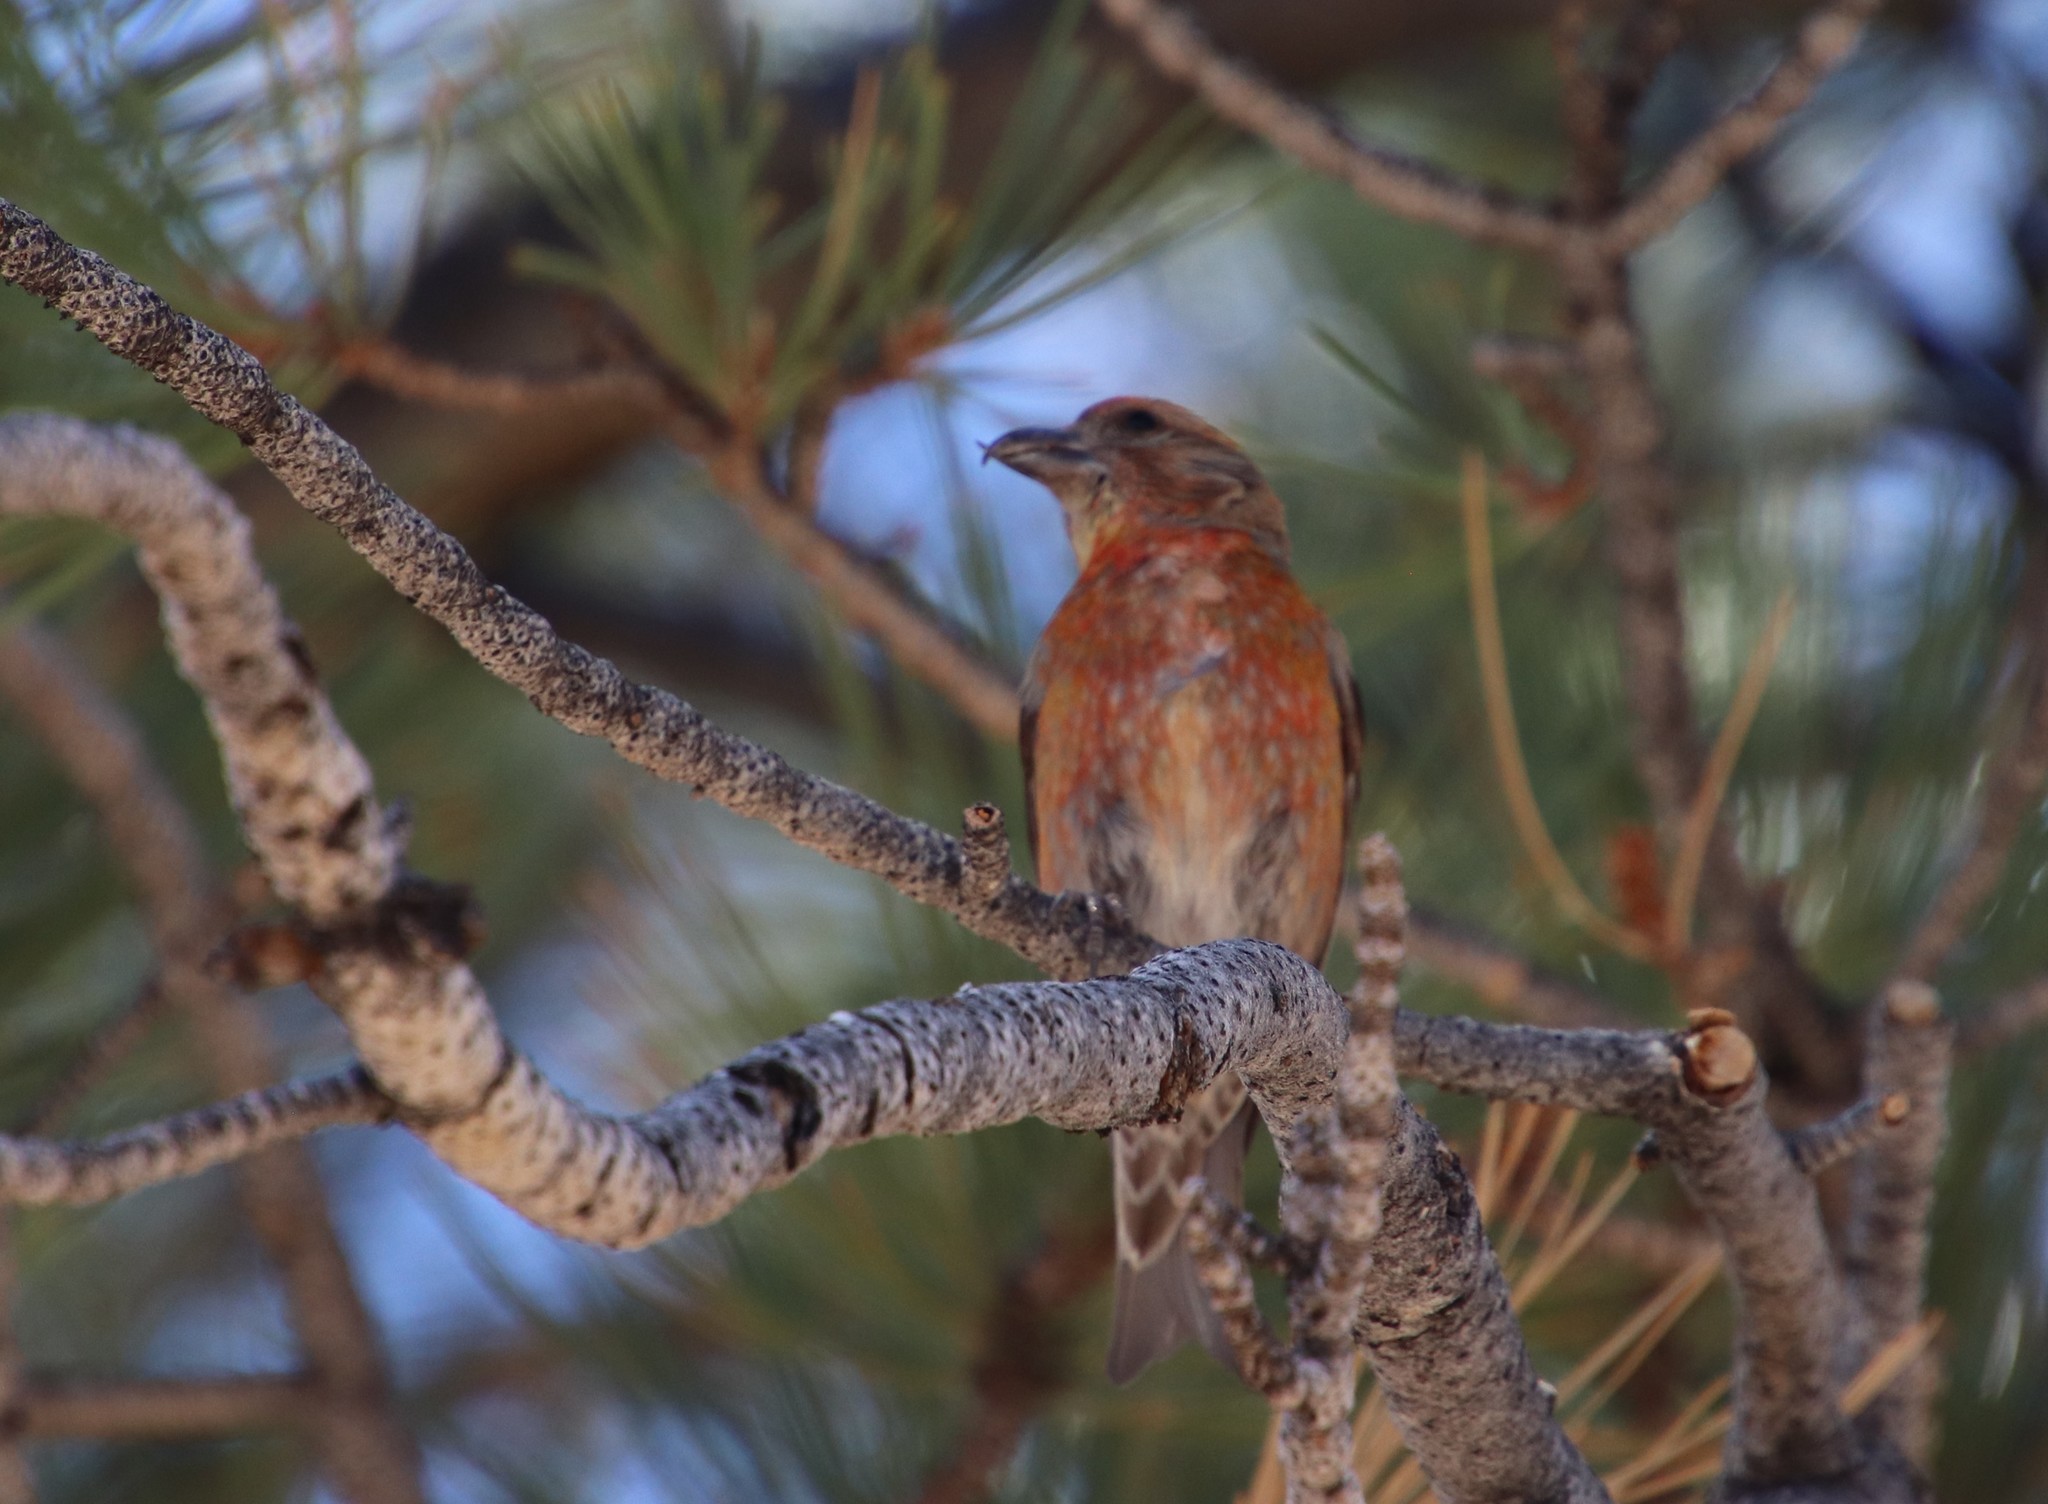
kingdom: Animalia
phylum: Chordata
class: Aves
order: Passeriformes
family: Fringillidae
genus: Loxia
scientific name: Loxia curvirostra
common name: Red crossbill
